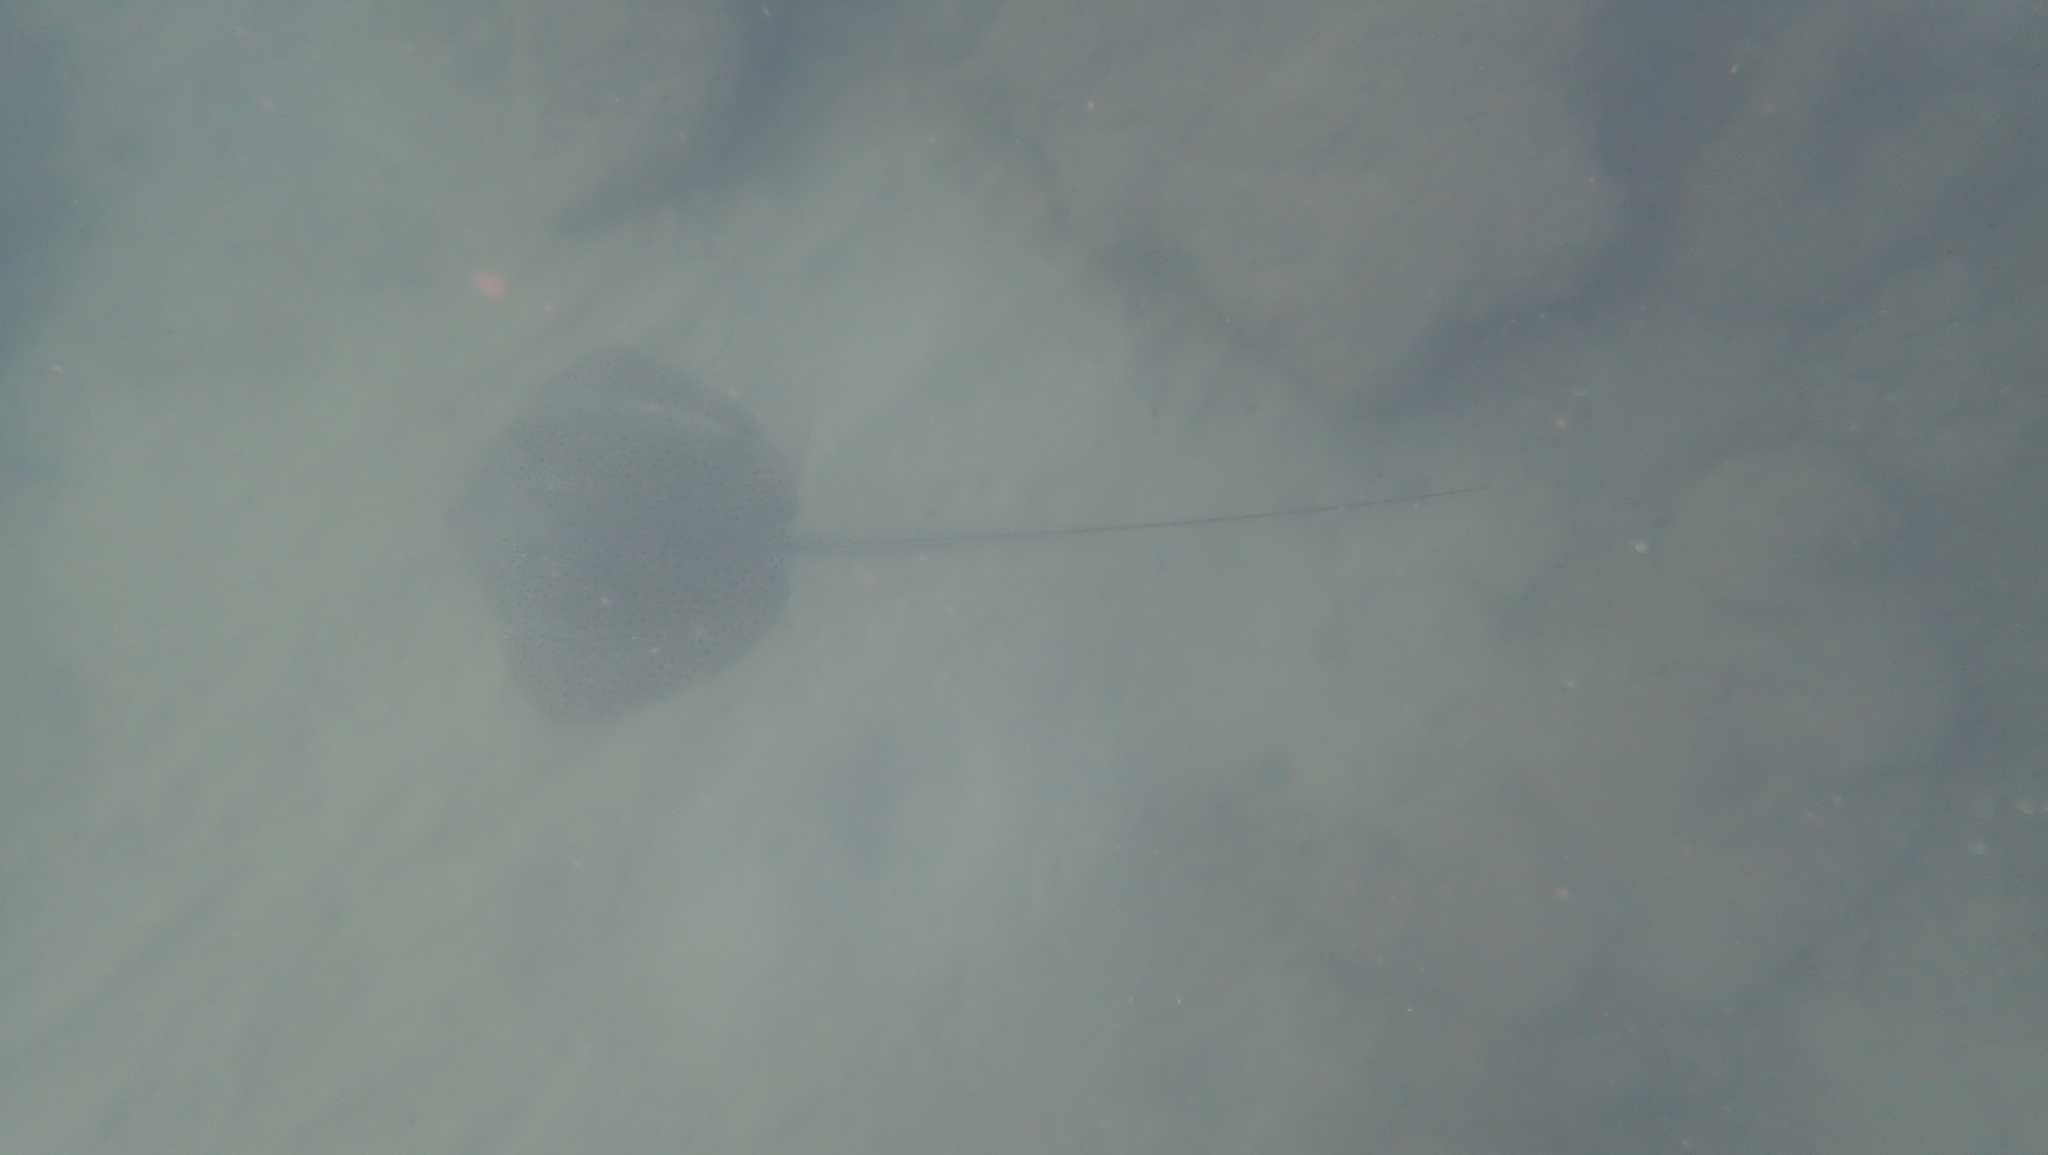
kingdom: Animalia
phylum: Chordata
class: Elasmobranchii
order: Myliobatiformes
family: Dasyatidae
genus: Himantura
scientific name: Himantura uarnak
